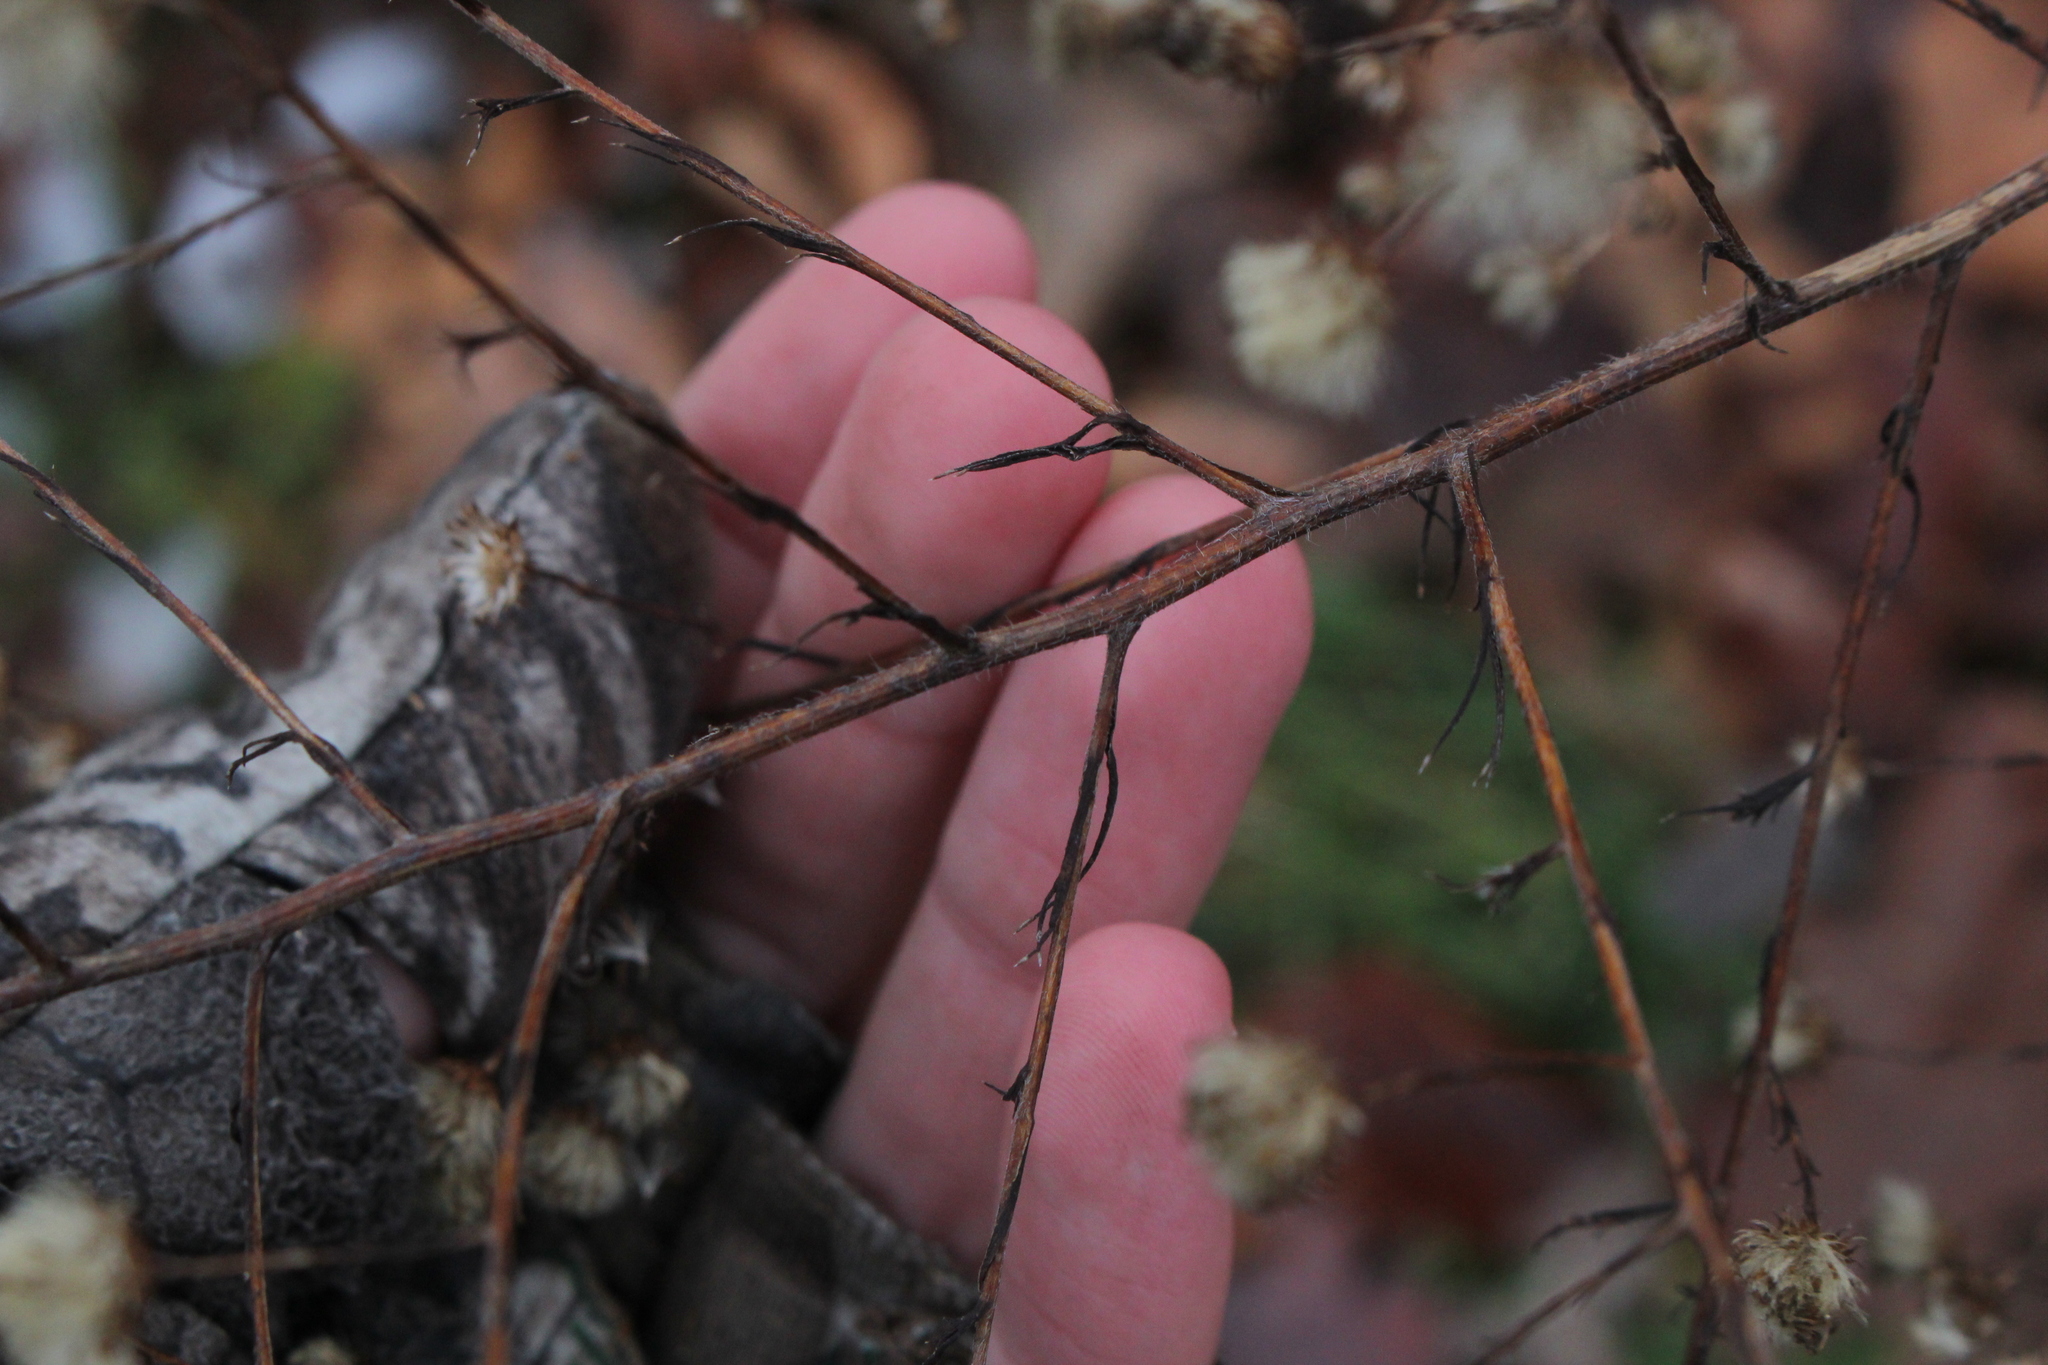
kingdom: Plantae
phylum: Tracheophyta
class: Magnoliopsida
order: Asterales
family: Asteraceae
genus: Symphyotrichum
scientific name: Symphyotrichum pilosum
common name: Awl aster
